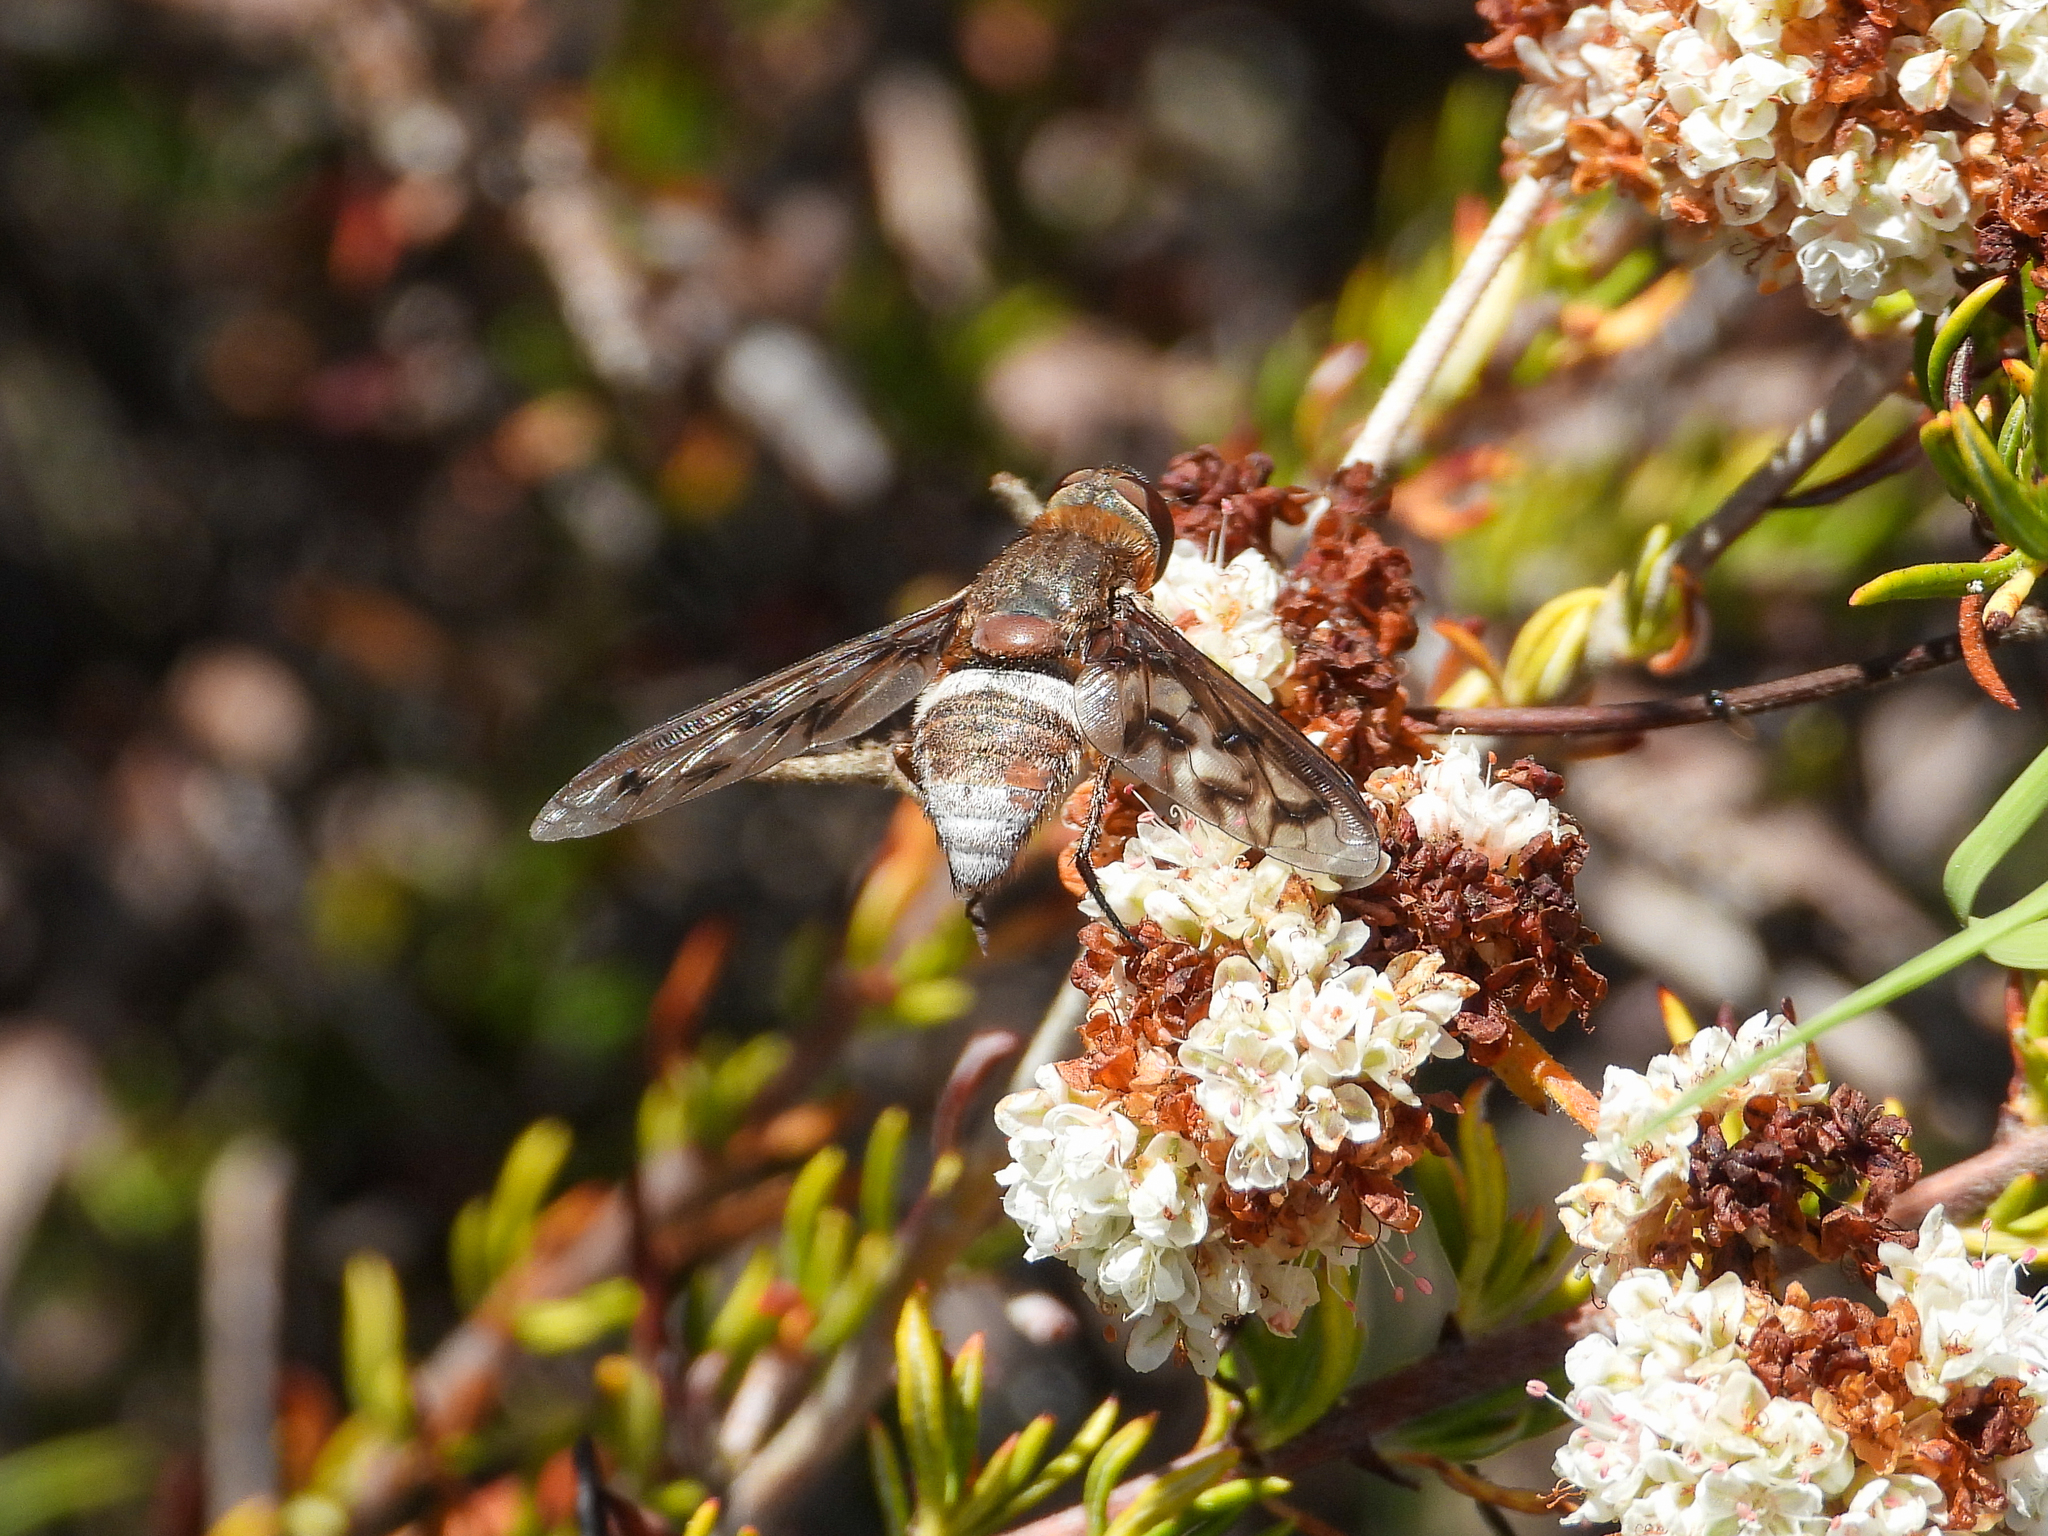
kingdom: Animalia
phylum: Arthropoda
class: Insecta
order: Diptera
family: Bombyliidae
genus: Nyia
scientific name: Nyia gazophylax
